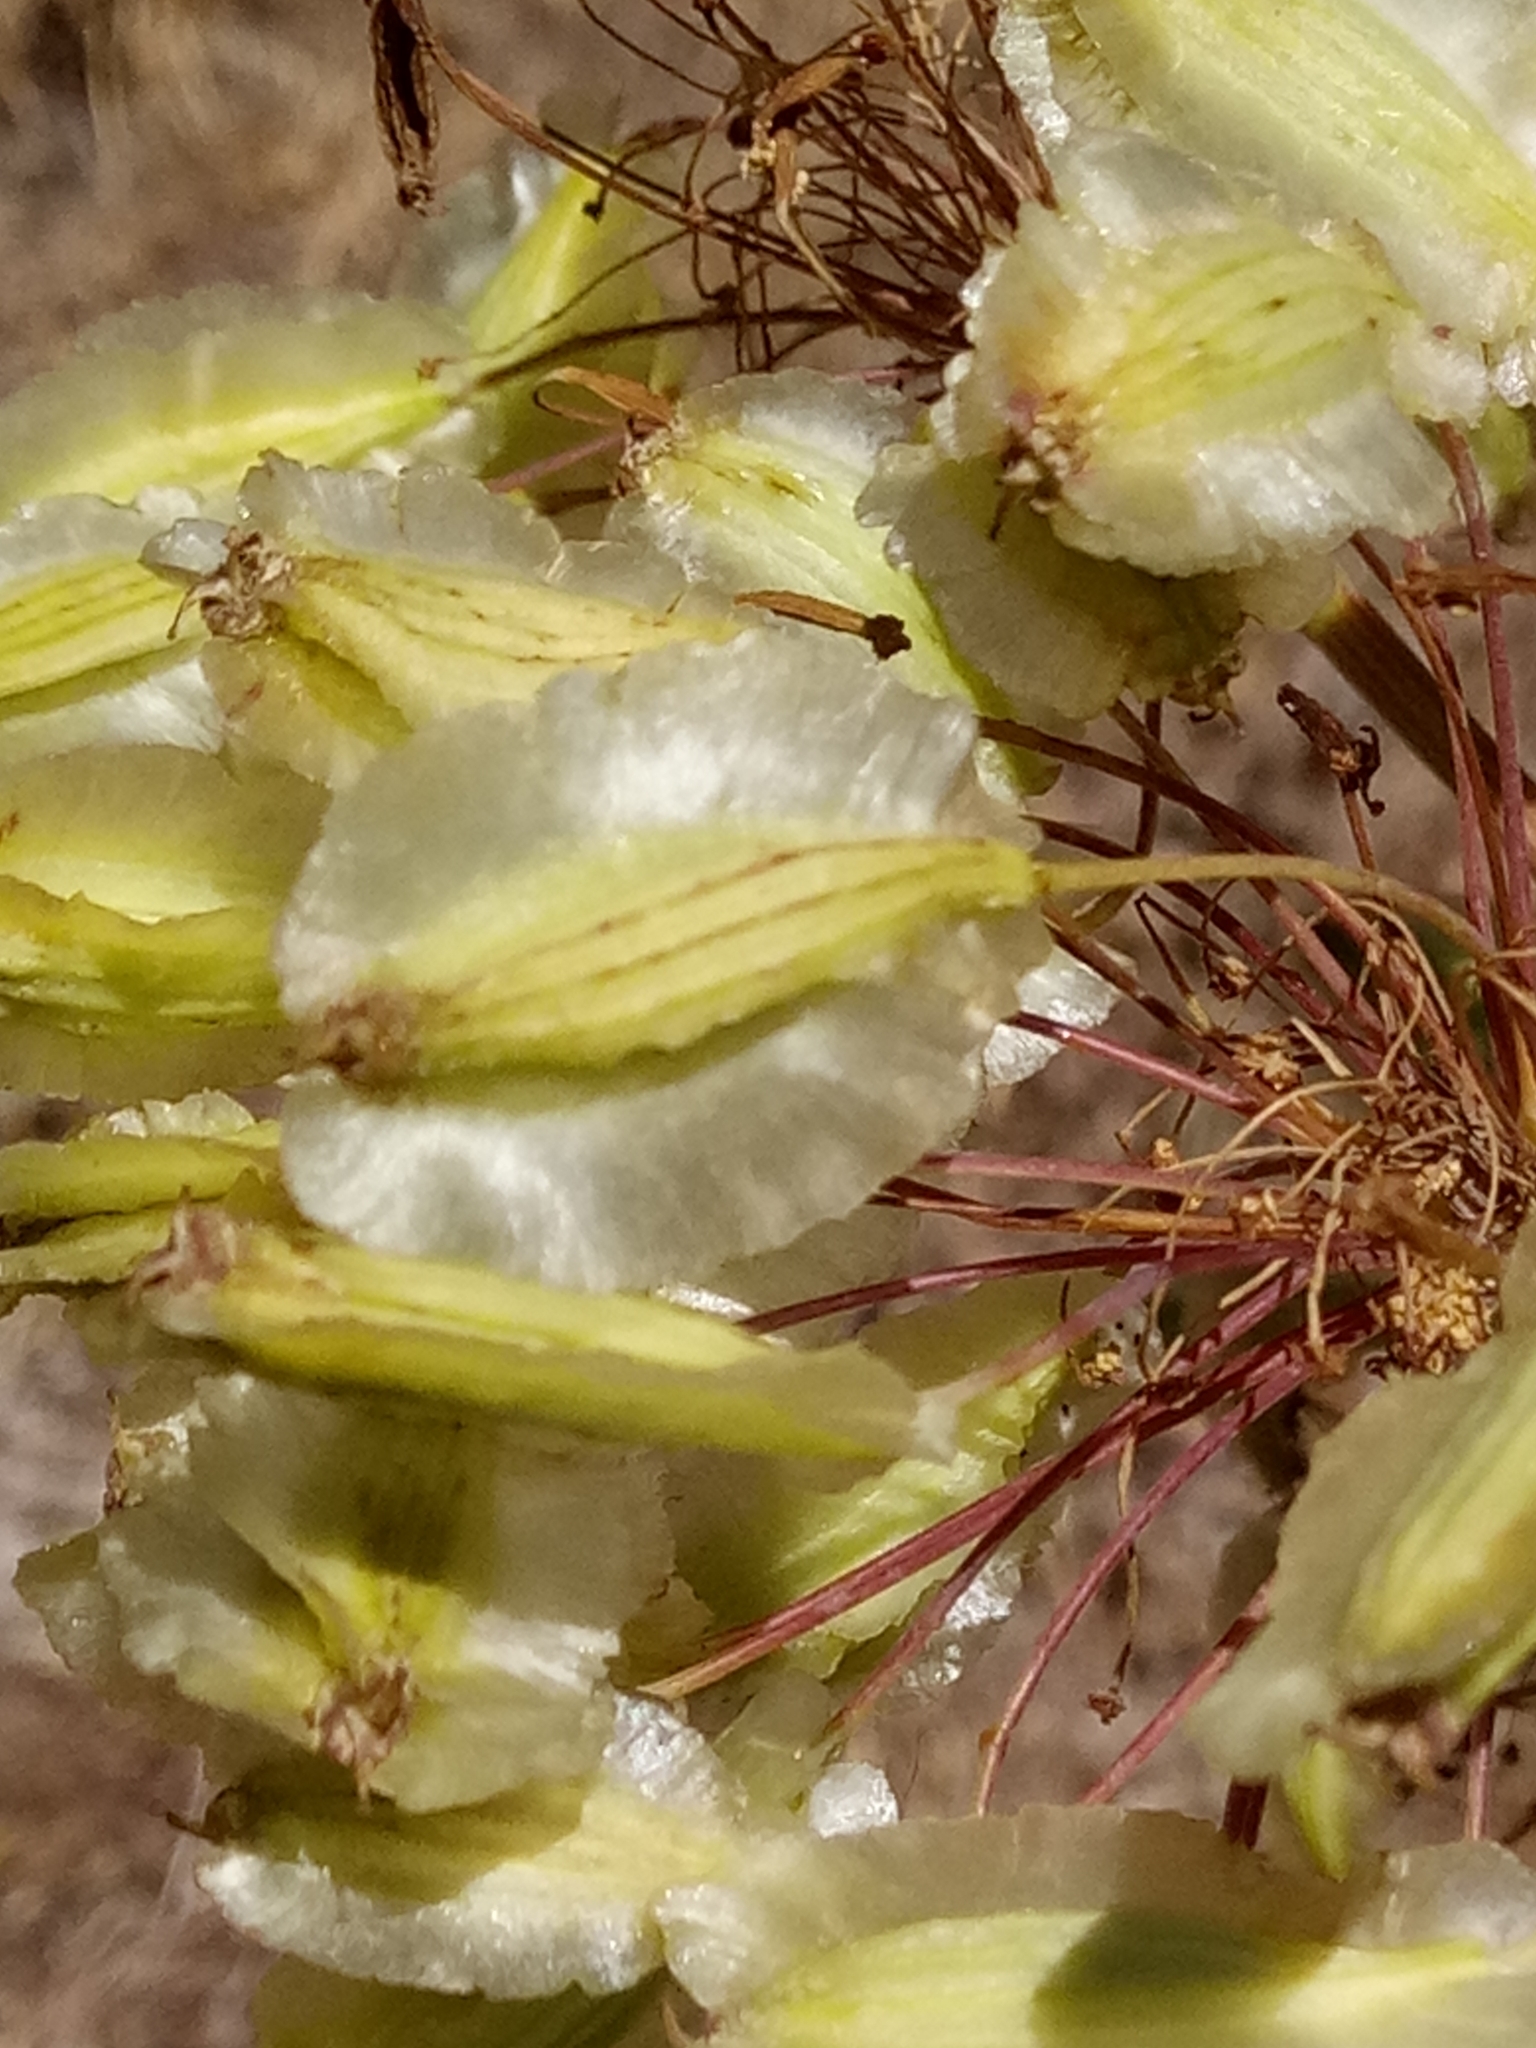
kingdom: Plantae
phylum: Tracheophyta
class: Magnoliopsida
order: Apiales
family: Apiaceae
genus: Thapsia
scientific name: Thapsia garganica
